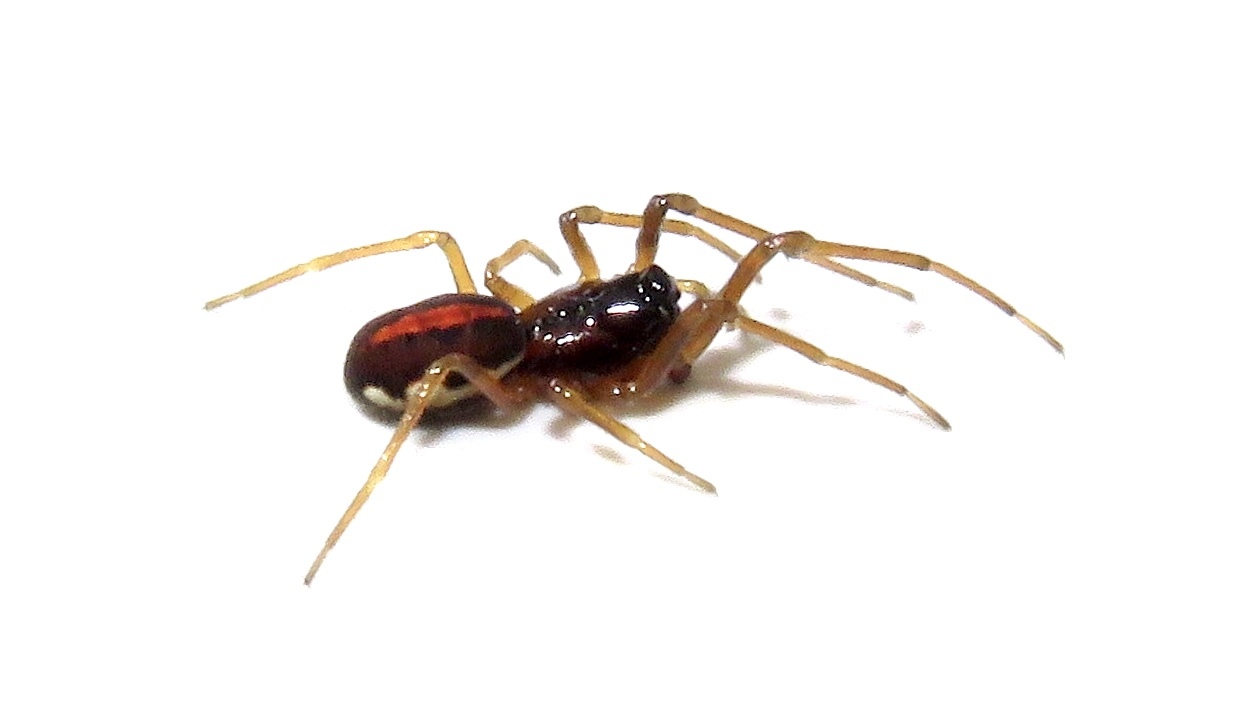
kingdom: Animalia
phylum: Arthropoda
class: Arachnida
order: Araneae
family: Tetragnathidae
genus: Pachygnatha
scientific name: Pachygnatha autumnalis
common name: Big-eyed thick-jawed spider
